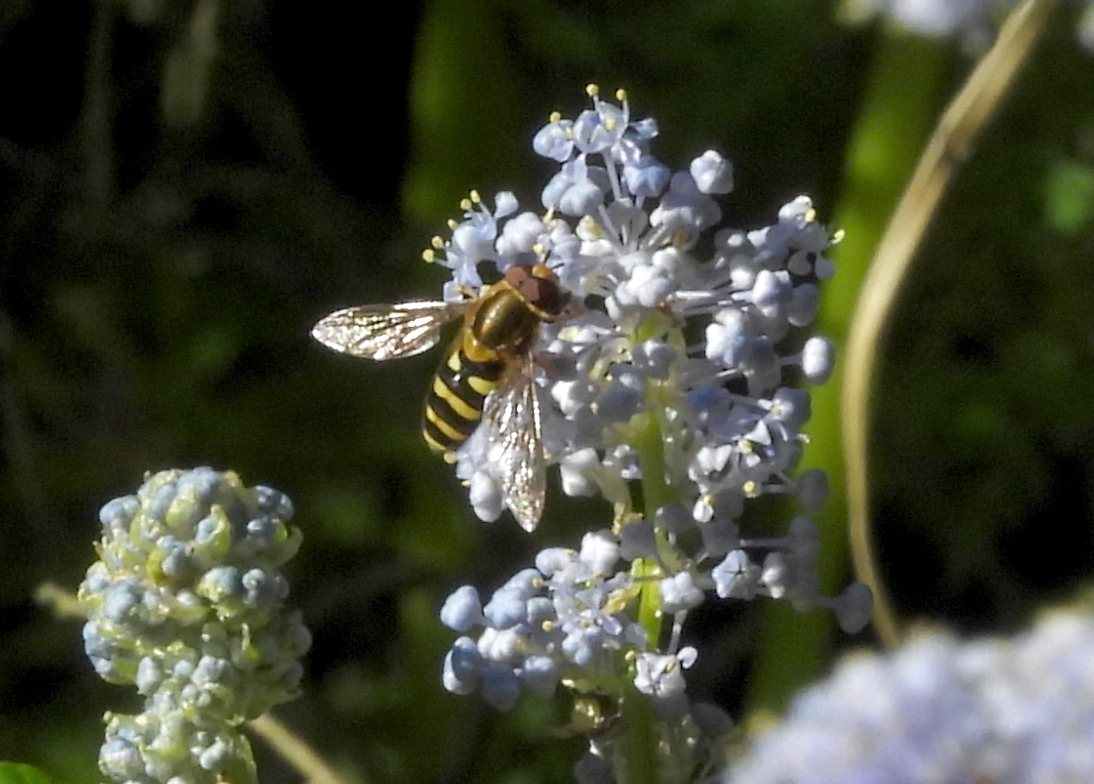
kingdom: Animalia
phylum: Arthropoda
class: Insecta
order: Diptera
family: Syrphidae
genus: Syrphus
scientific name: Syrphus opinator
